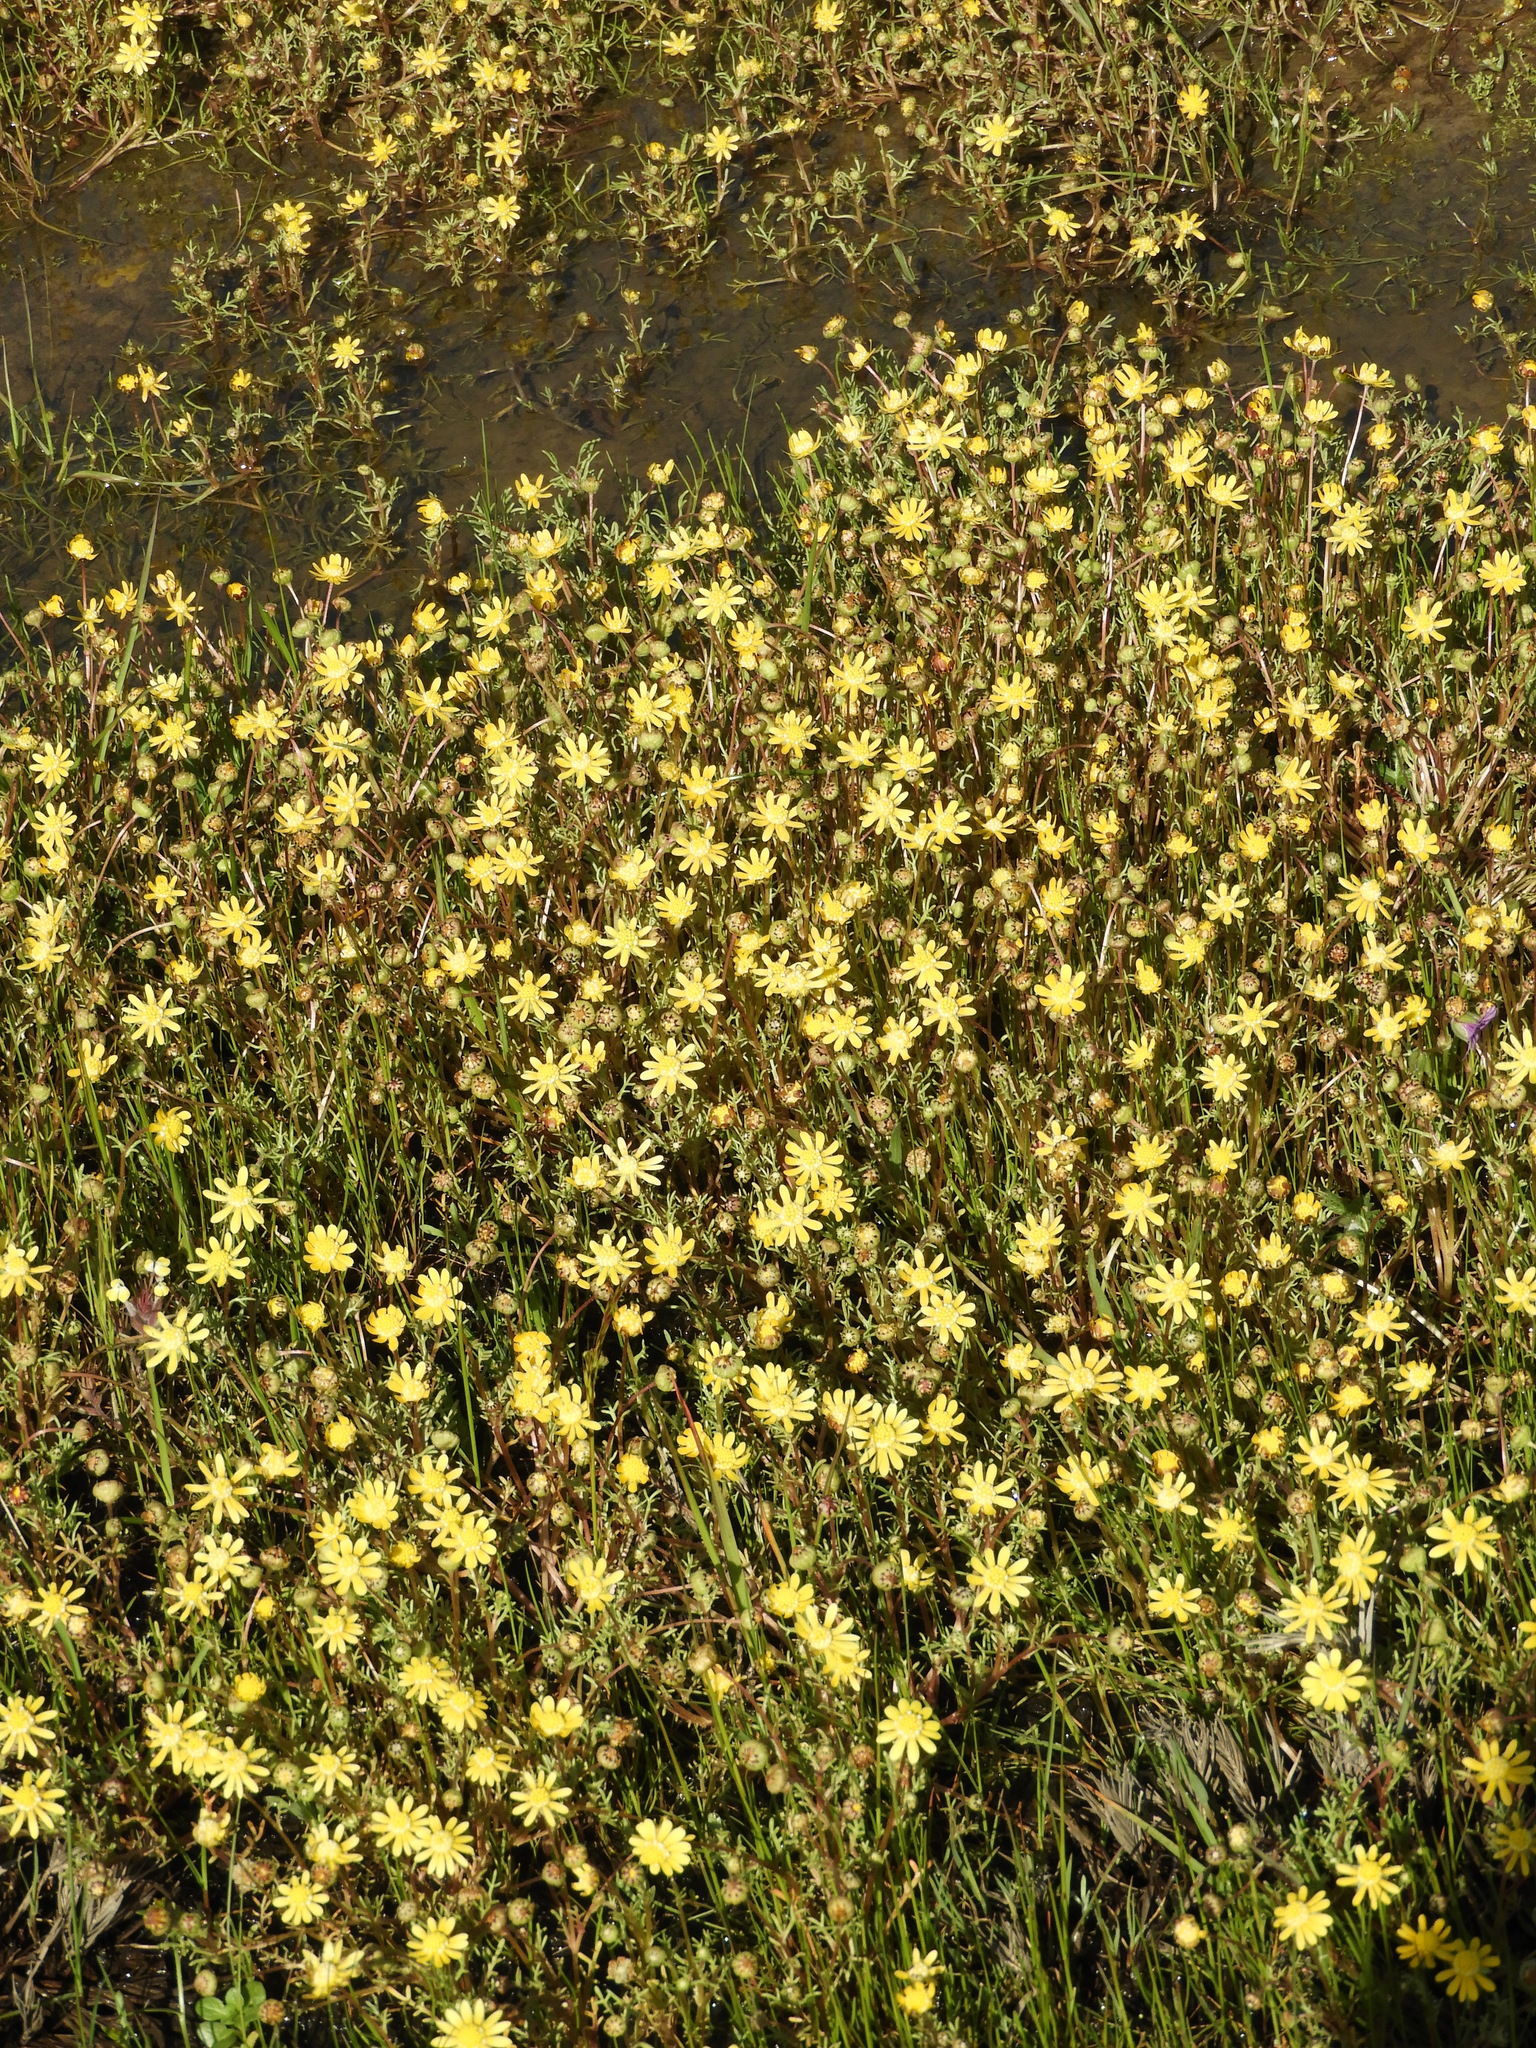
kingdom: Plantae
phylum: Tracheophyta
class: Magnoliopsida
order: Asterales
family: Asteraceae
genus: Blennosperma
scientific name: Blennosperma nanum
